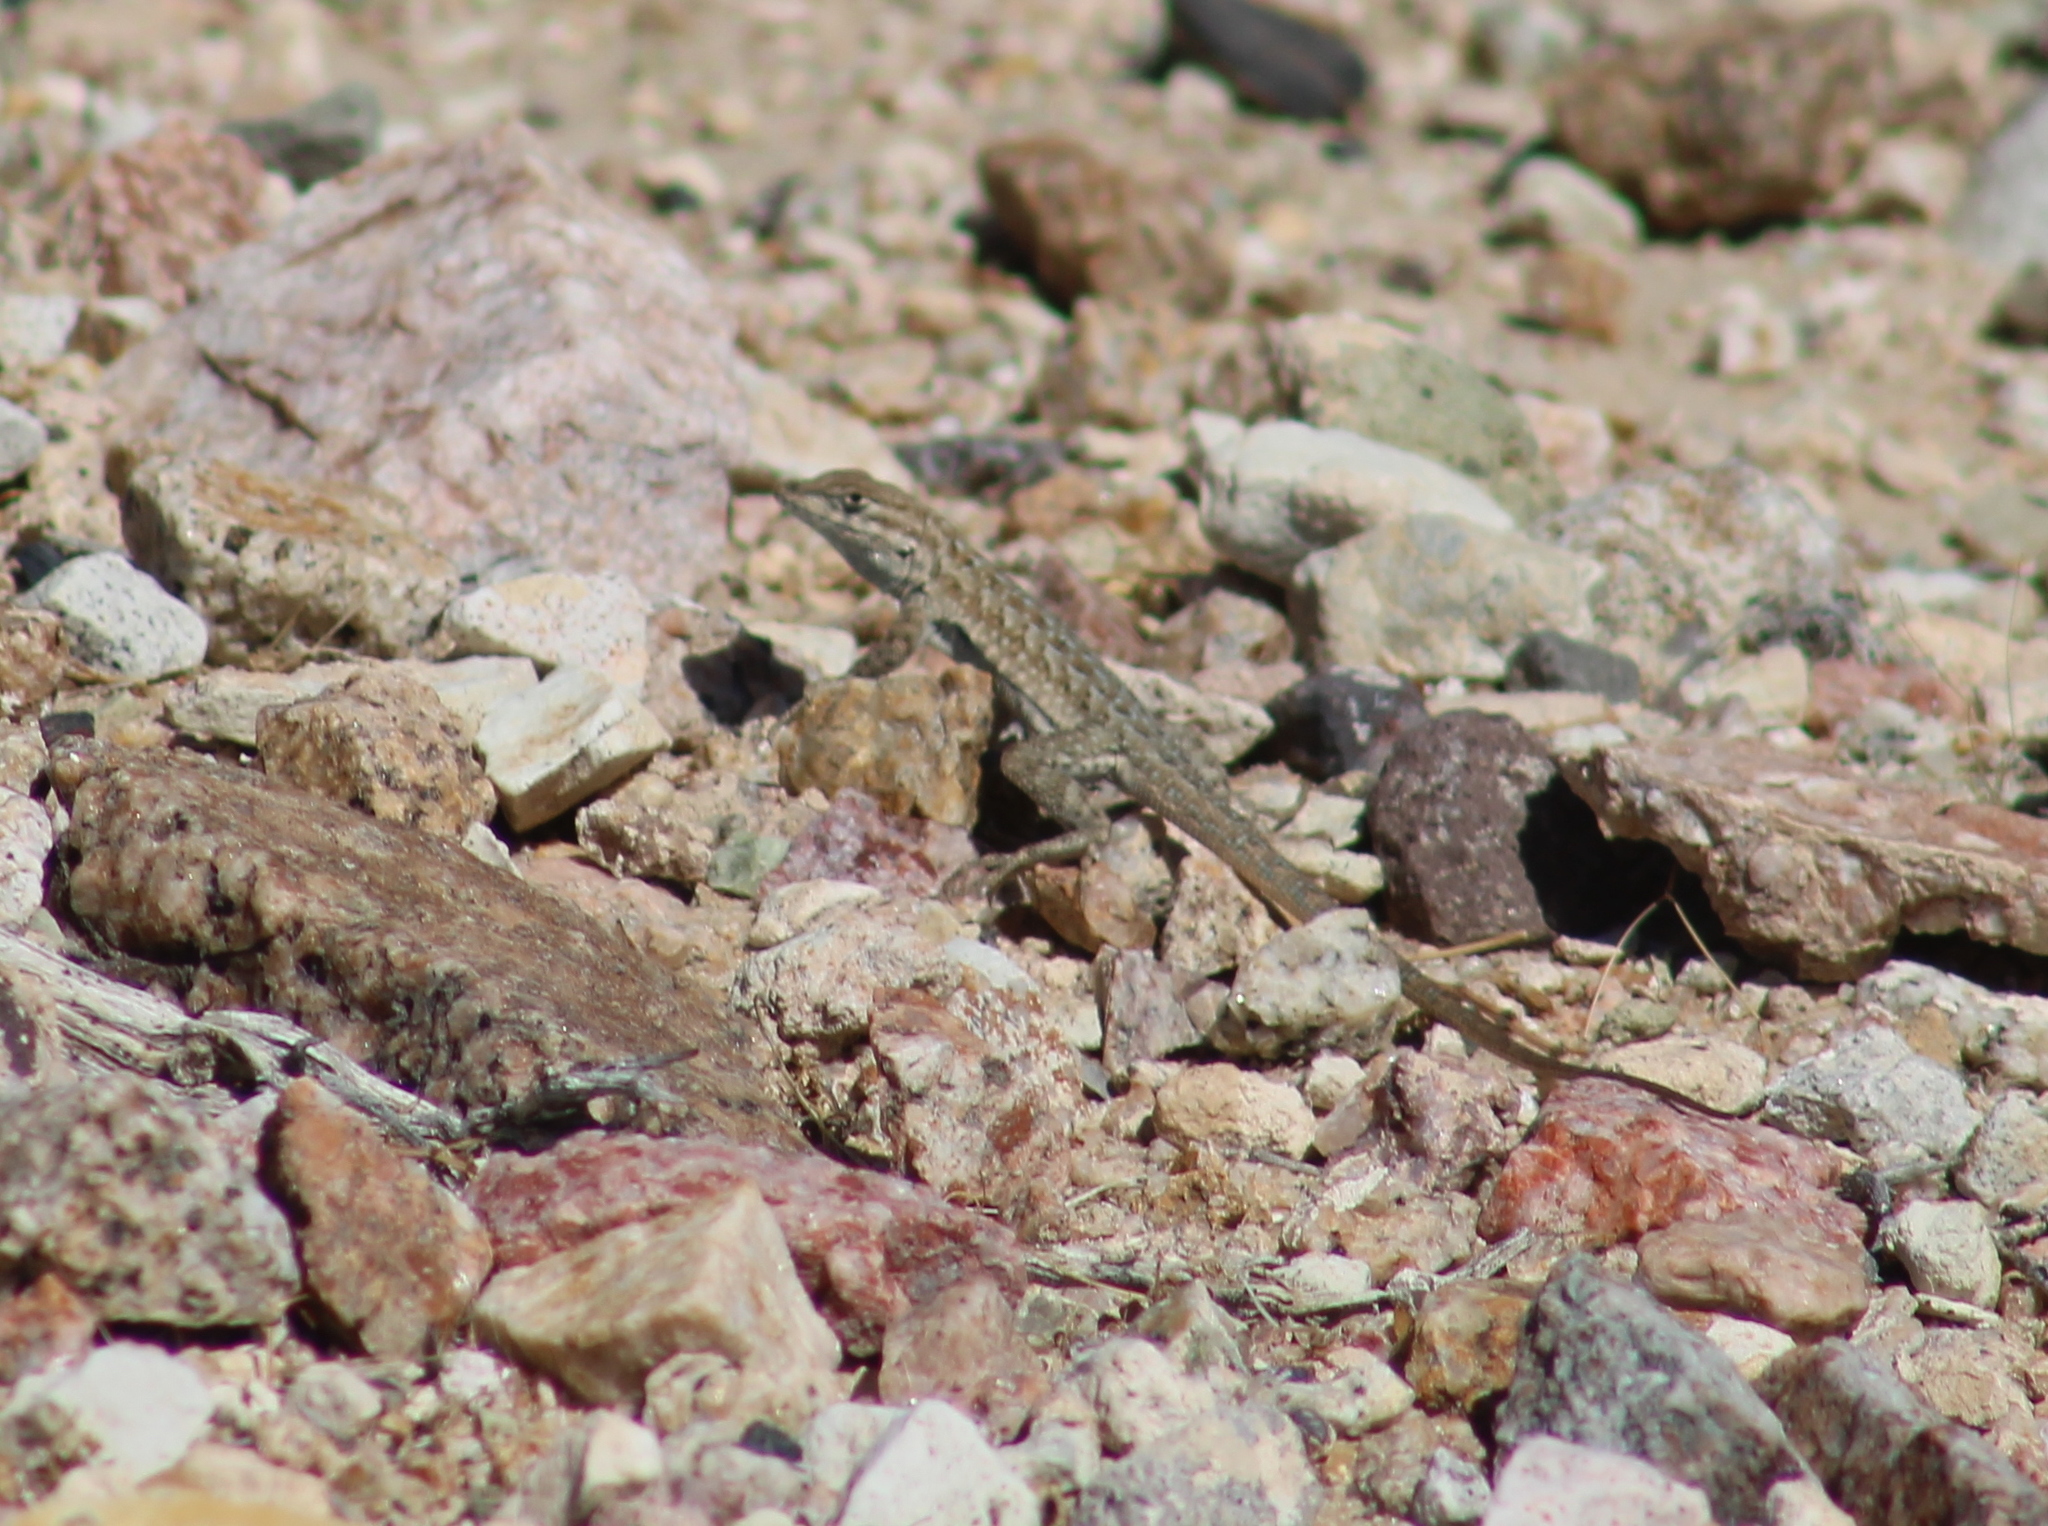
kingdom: Animalia
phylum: Chordata
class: Squamata
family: Phrynosomatidae
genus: Uta
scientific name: Uta stansburiana
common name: Side-blotched lizard
